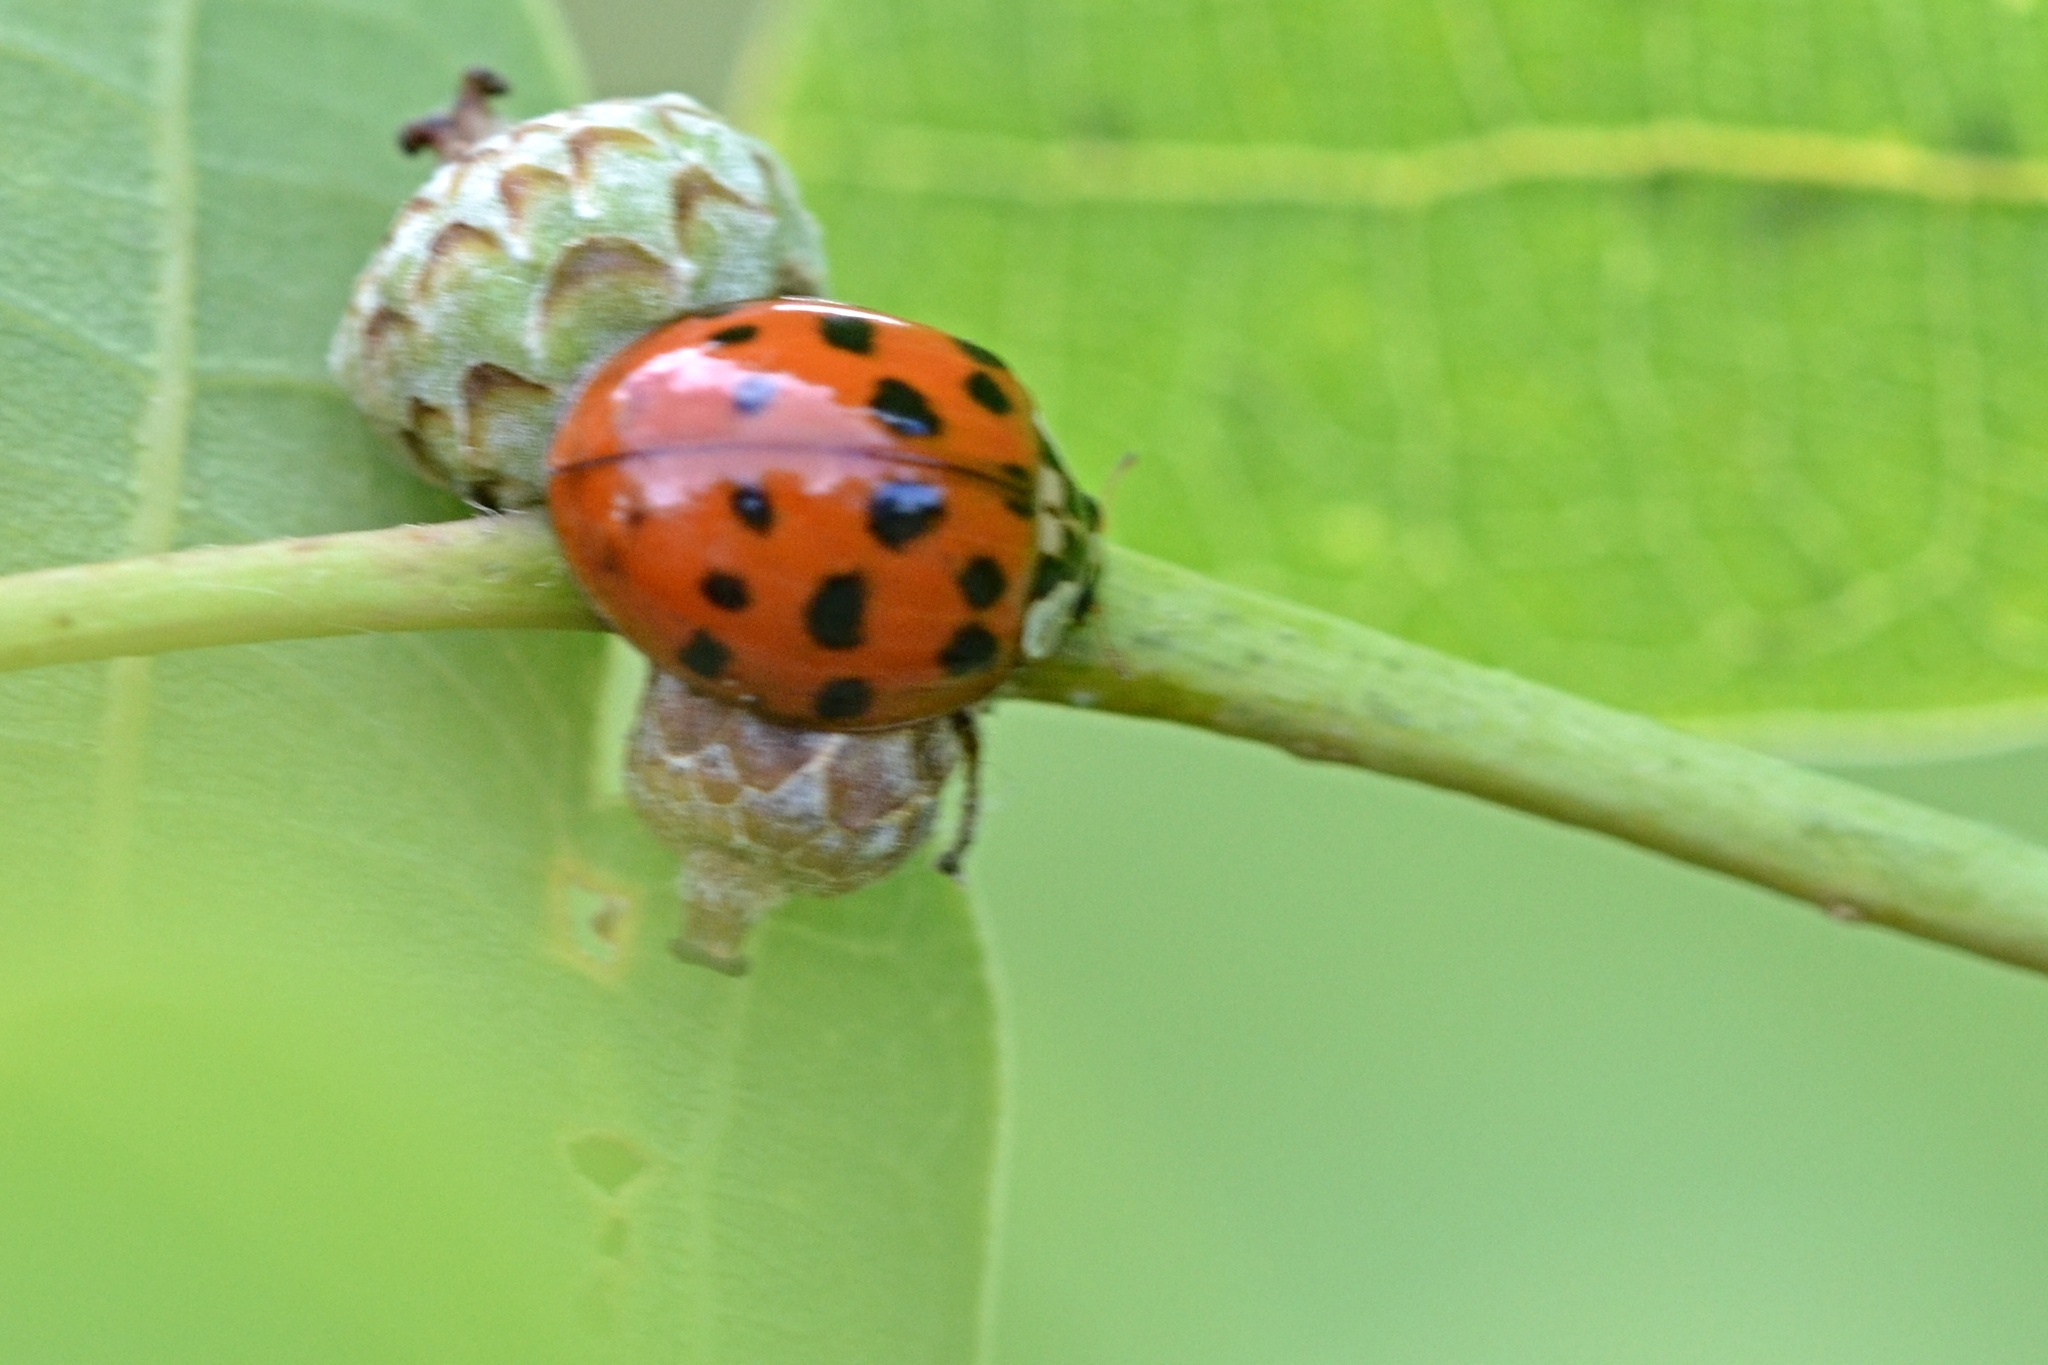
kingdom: Animalia
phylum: Arthropoda
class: Insecta
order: Coleoptera
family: Coccinellidae
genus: Harmonia
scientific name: Harmonia axyridis
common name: Harlequin ladybird
